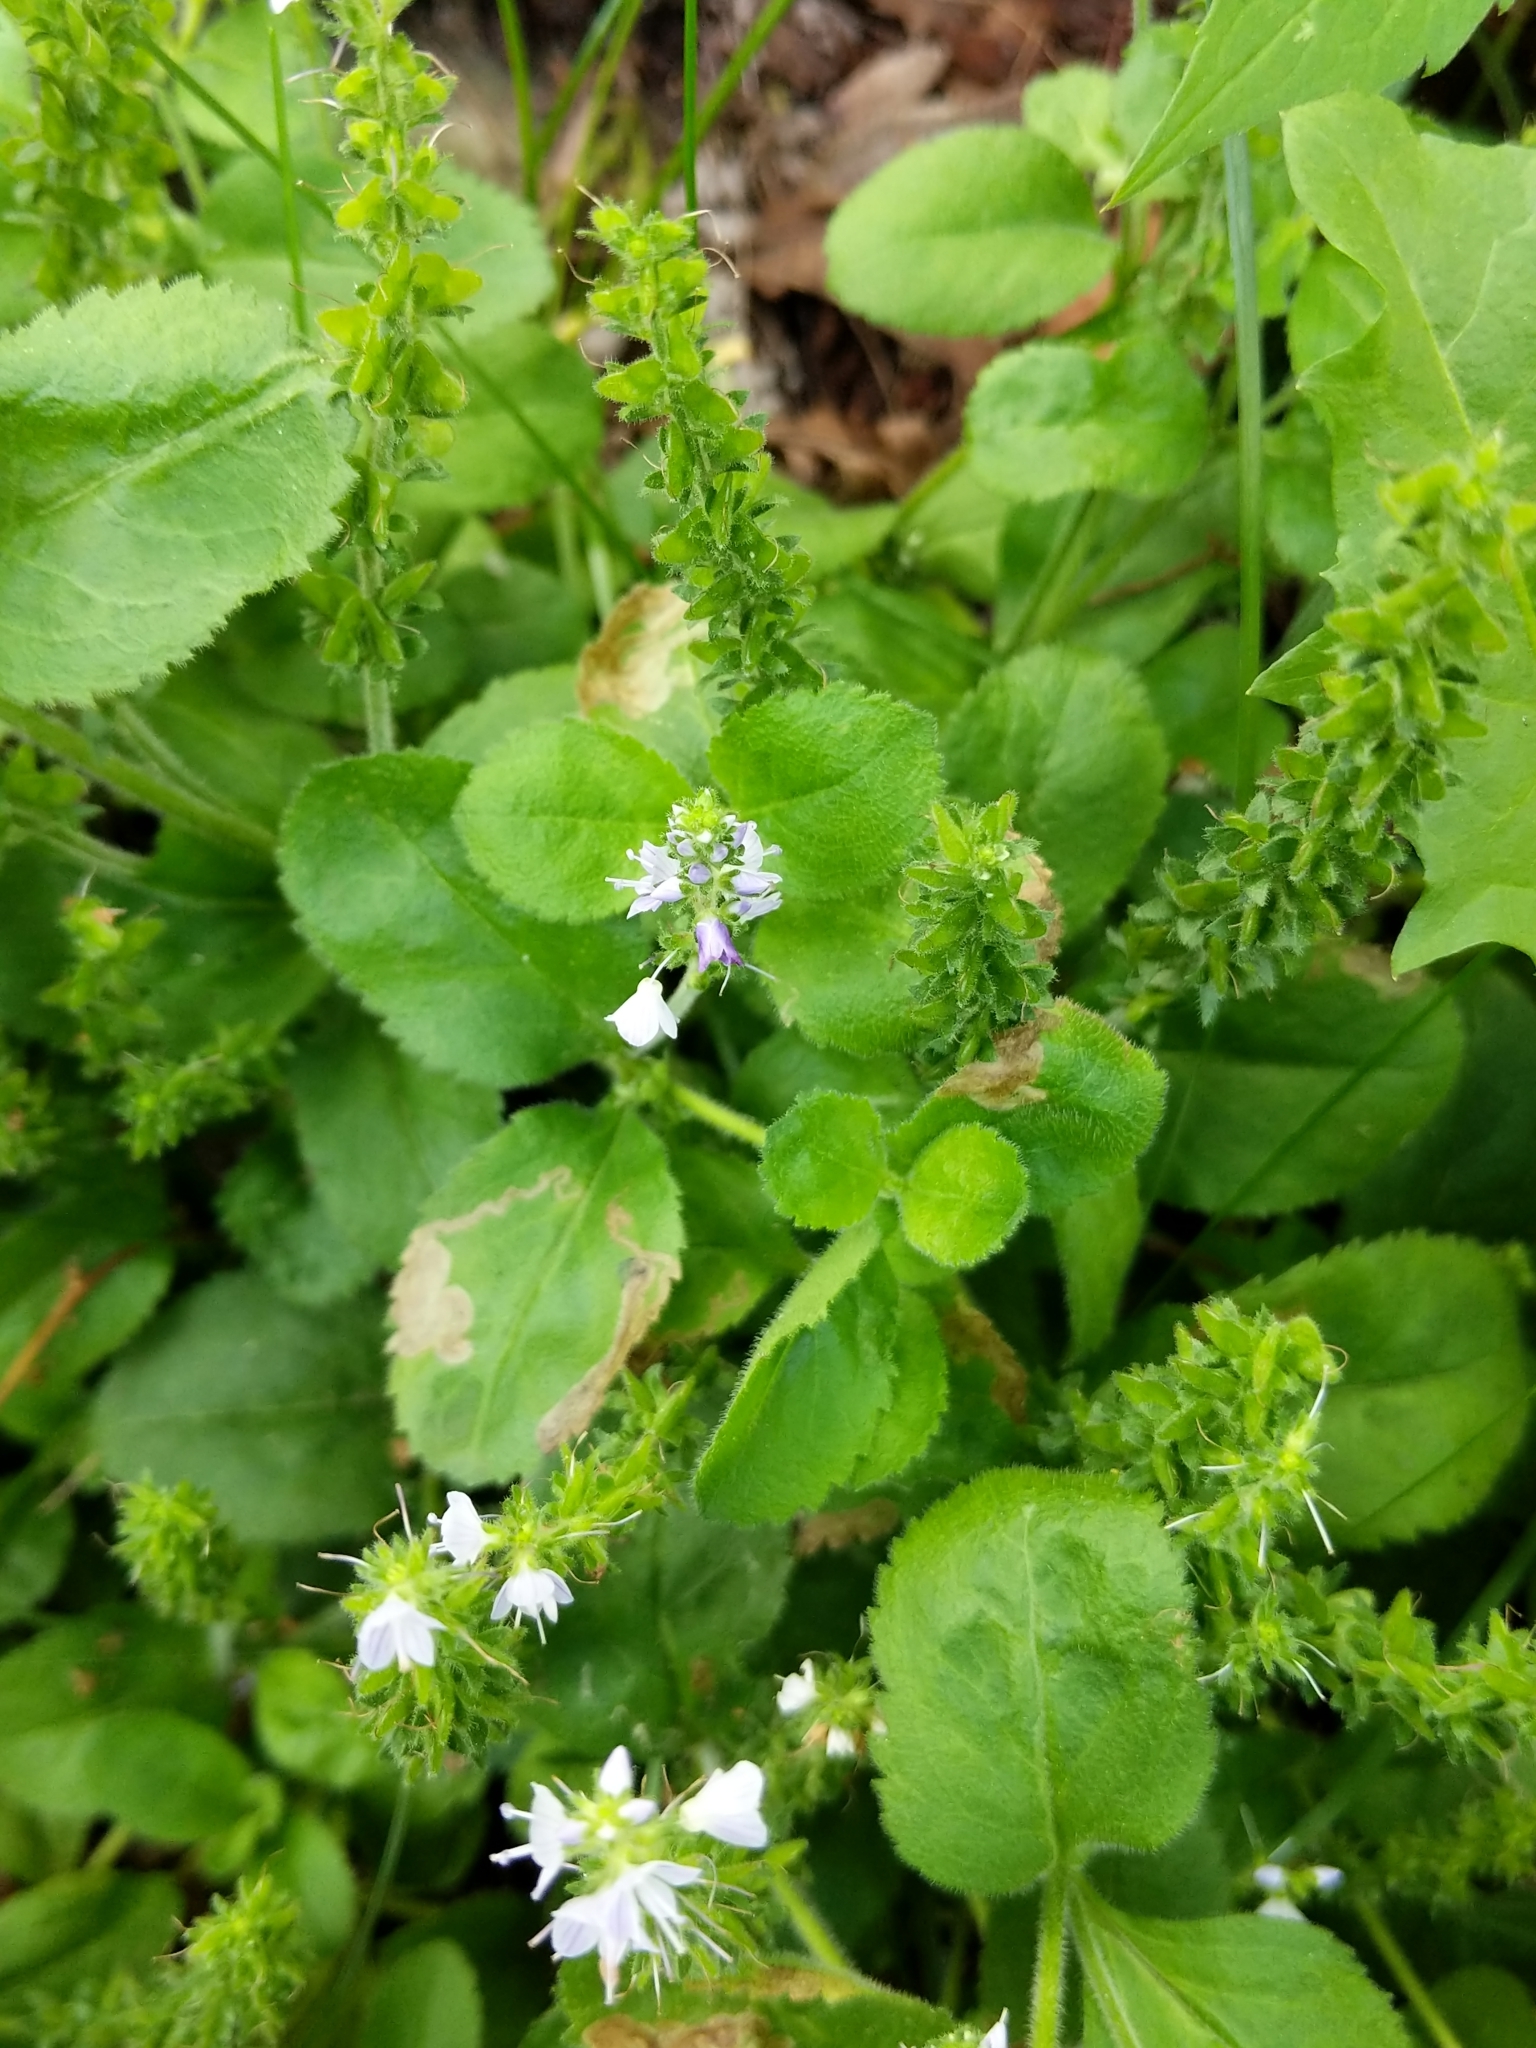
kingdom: Plantae
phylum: Tracheophyta
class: Magnoliopsida
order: Lamiales
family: Plantaginaceae
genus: Veronica
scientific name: Veronica officinalis
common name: Common speedwell
